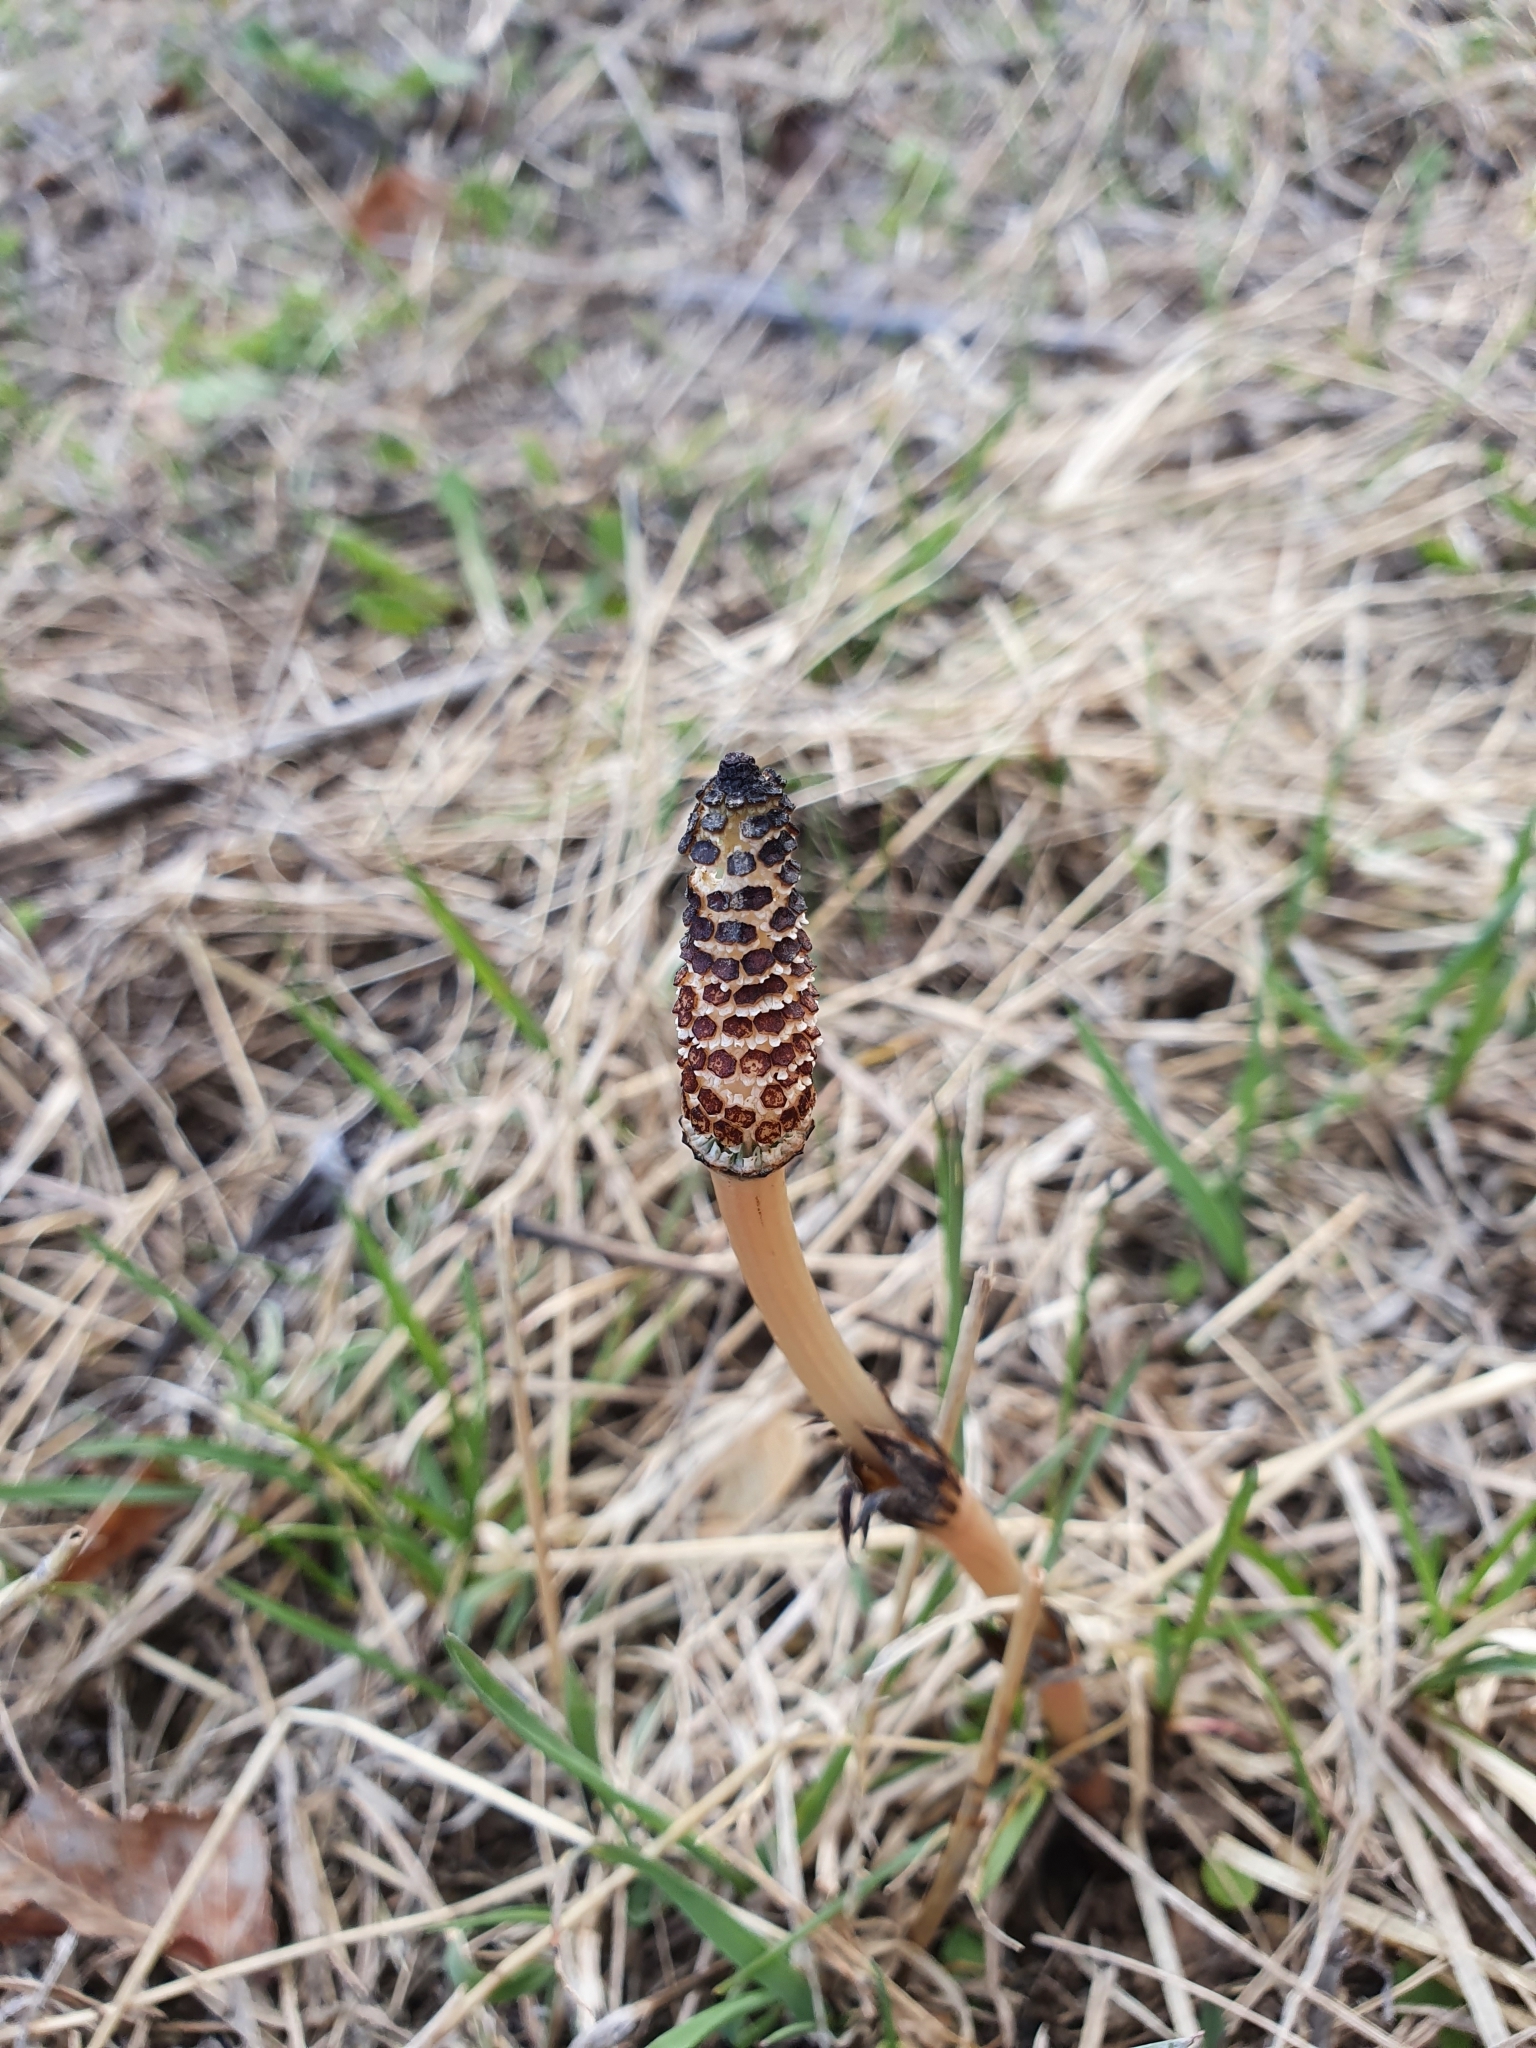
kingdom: Plantae
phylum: Tracheophyta
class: Polypodiopsida
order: Equisetales
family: Equisetaceae
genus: Equisetum
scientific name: Equisetum arvense
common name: Field horsetail
